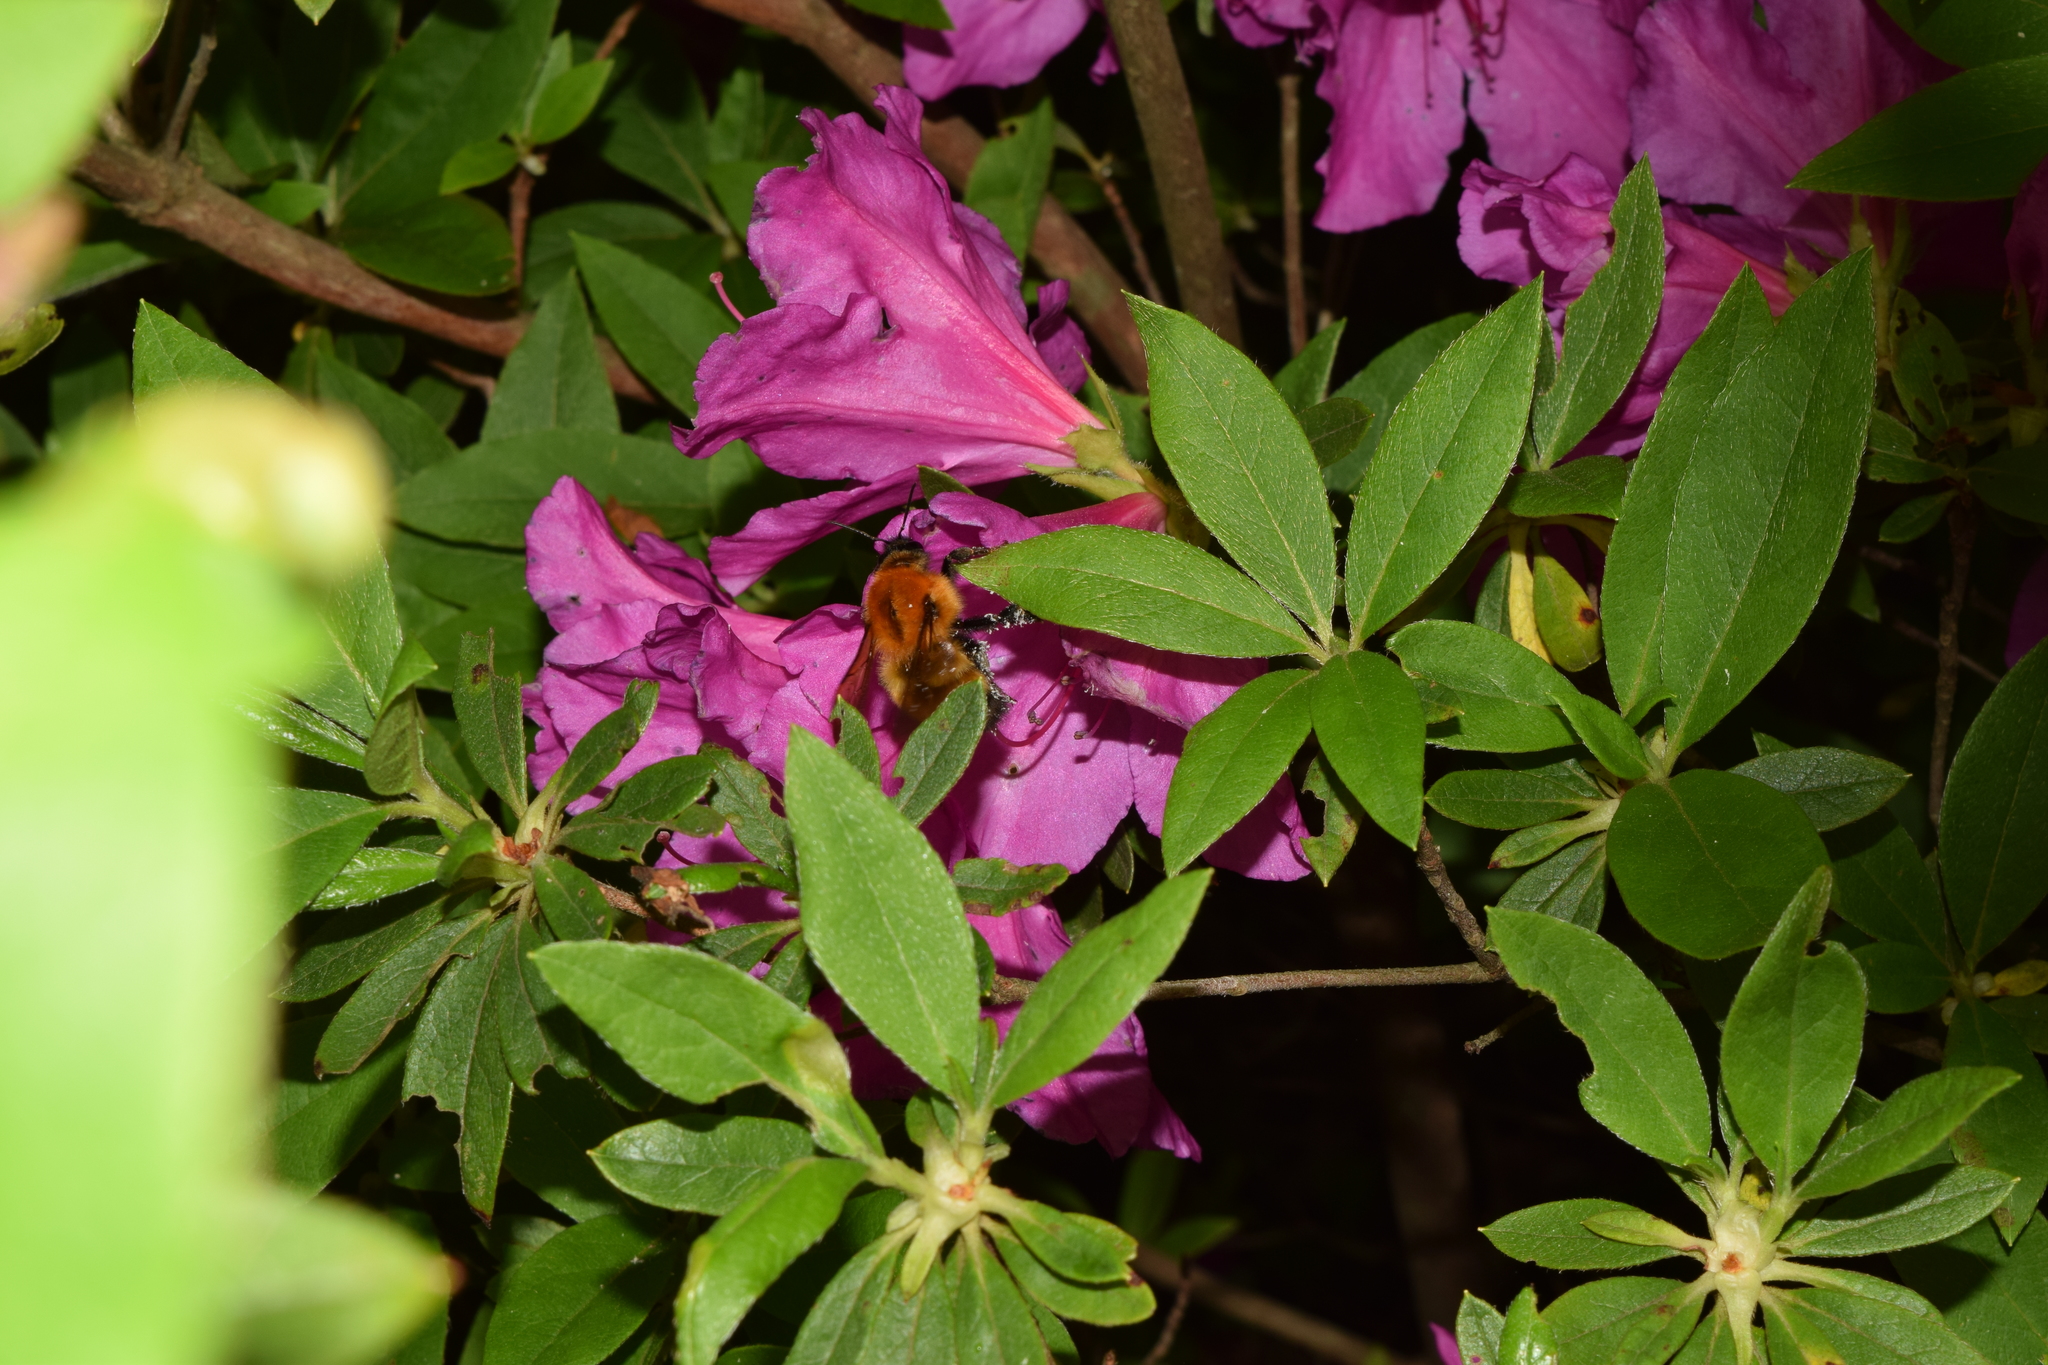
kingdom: Animalia
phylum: Arthropoda
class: Insecta
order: Hymenoptera
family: Apidae
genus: Bombus
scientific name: Bombus diversus
